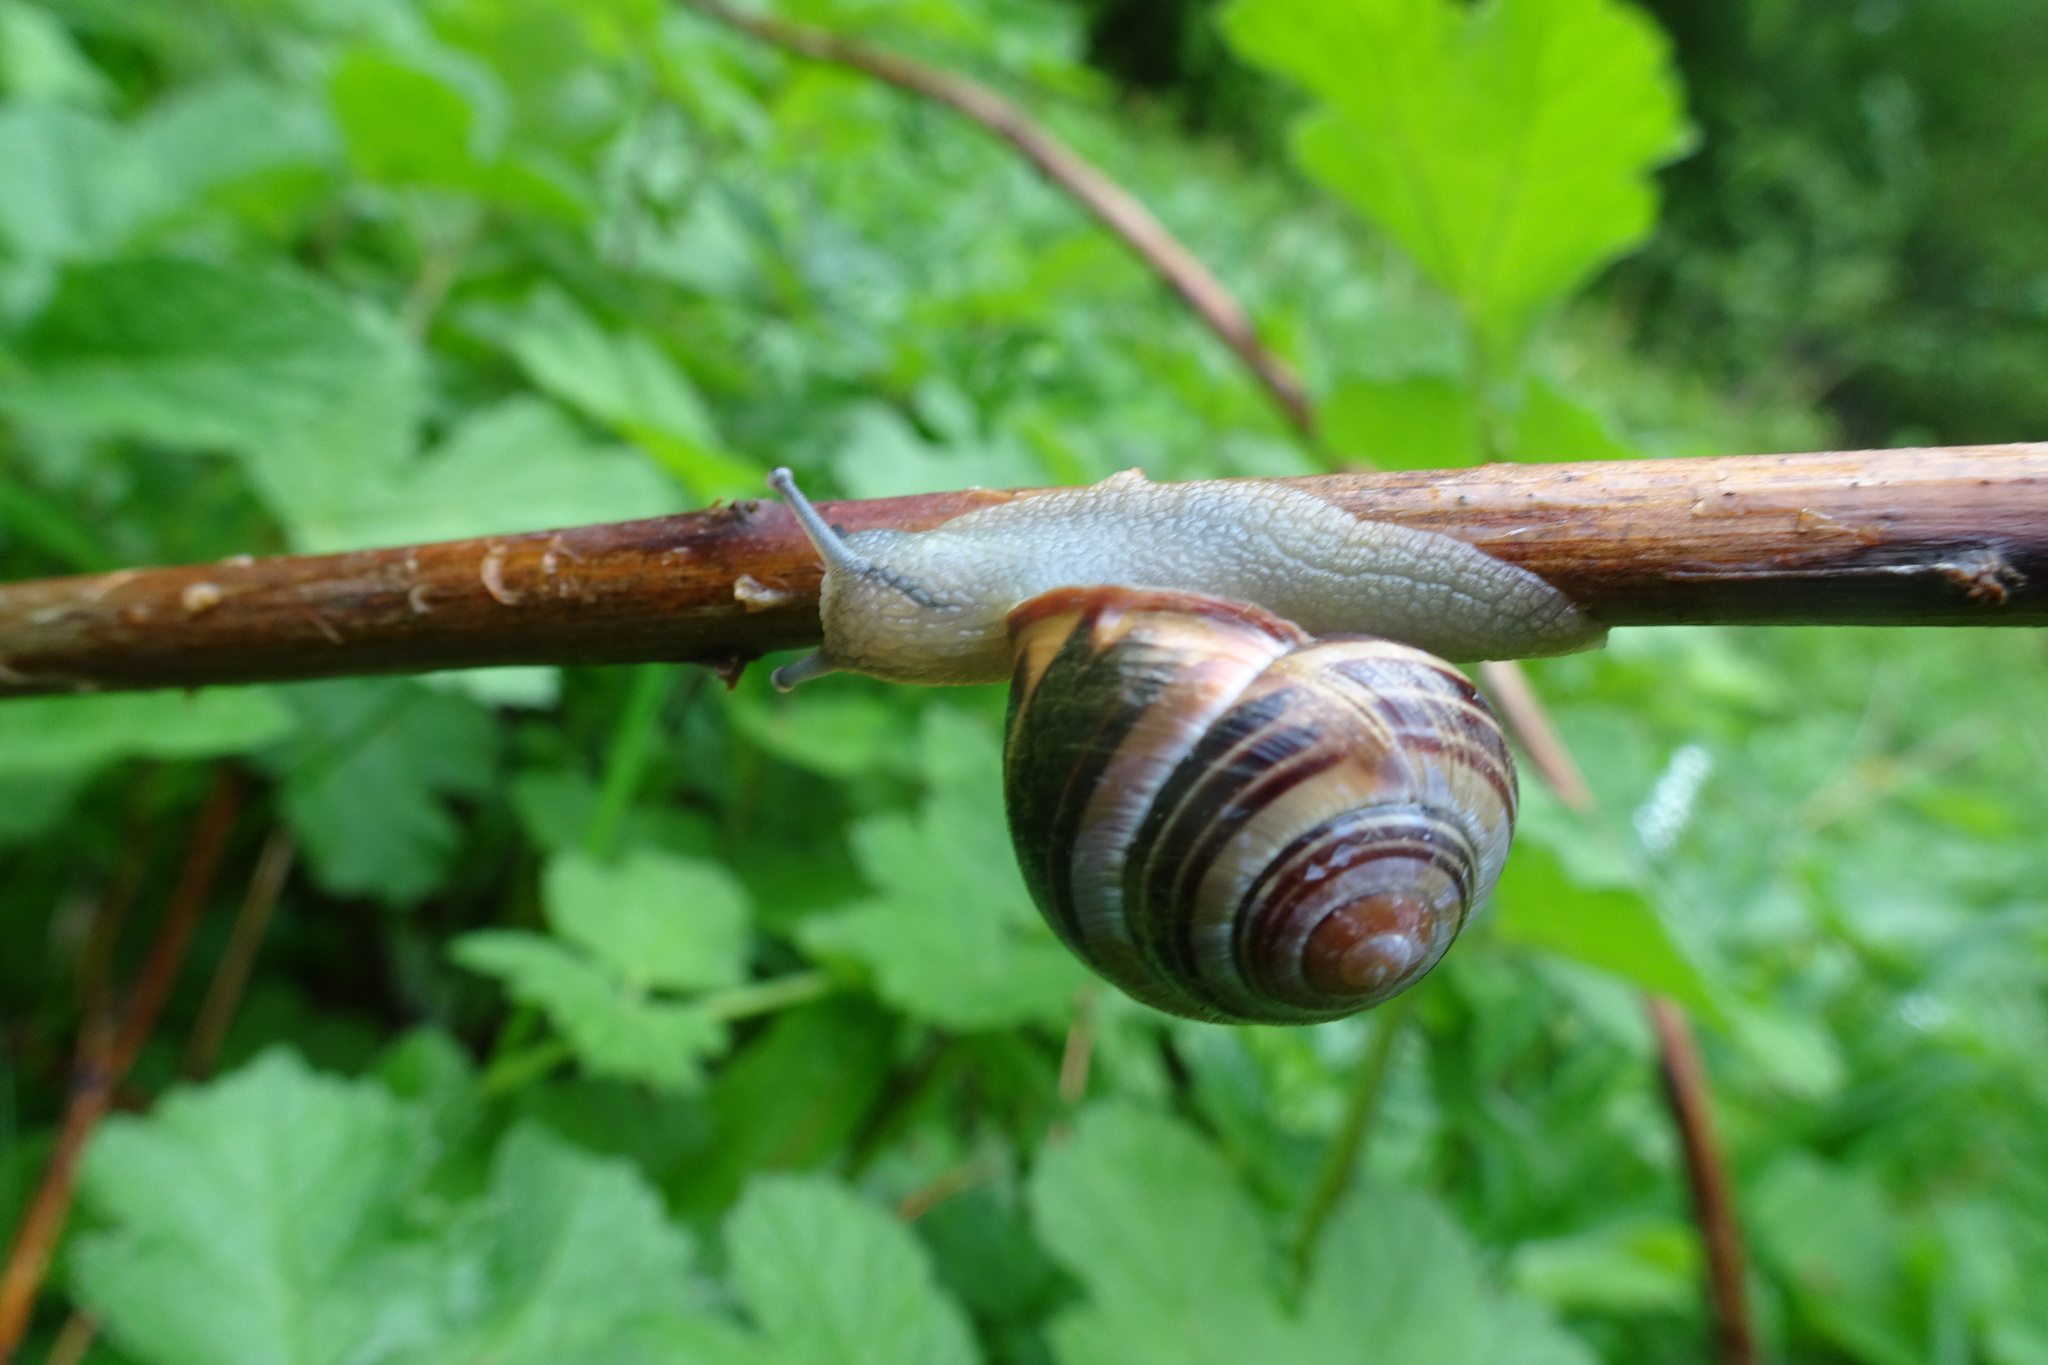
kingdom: Animalia
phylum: Mollusca
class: Gastropoda
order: Stylommatophora
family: Helicidae
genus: Cepaea
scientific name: Cepaea nemoralis
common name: Grovesnail
